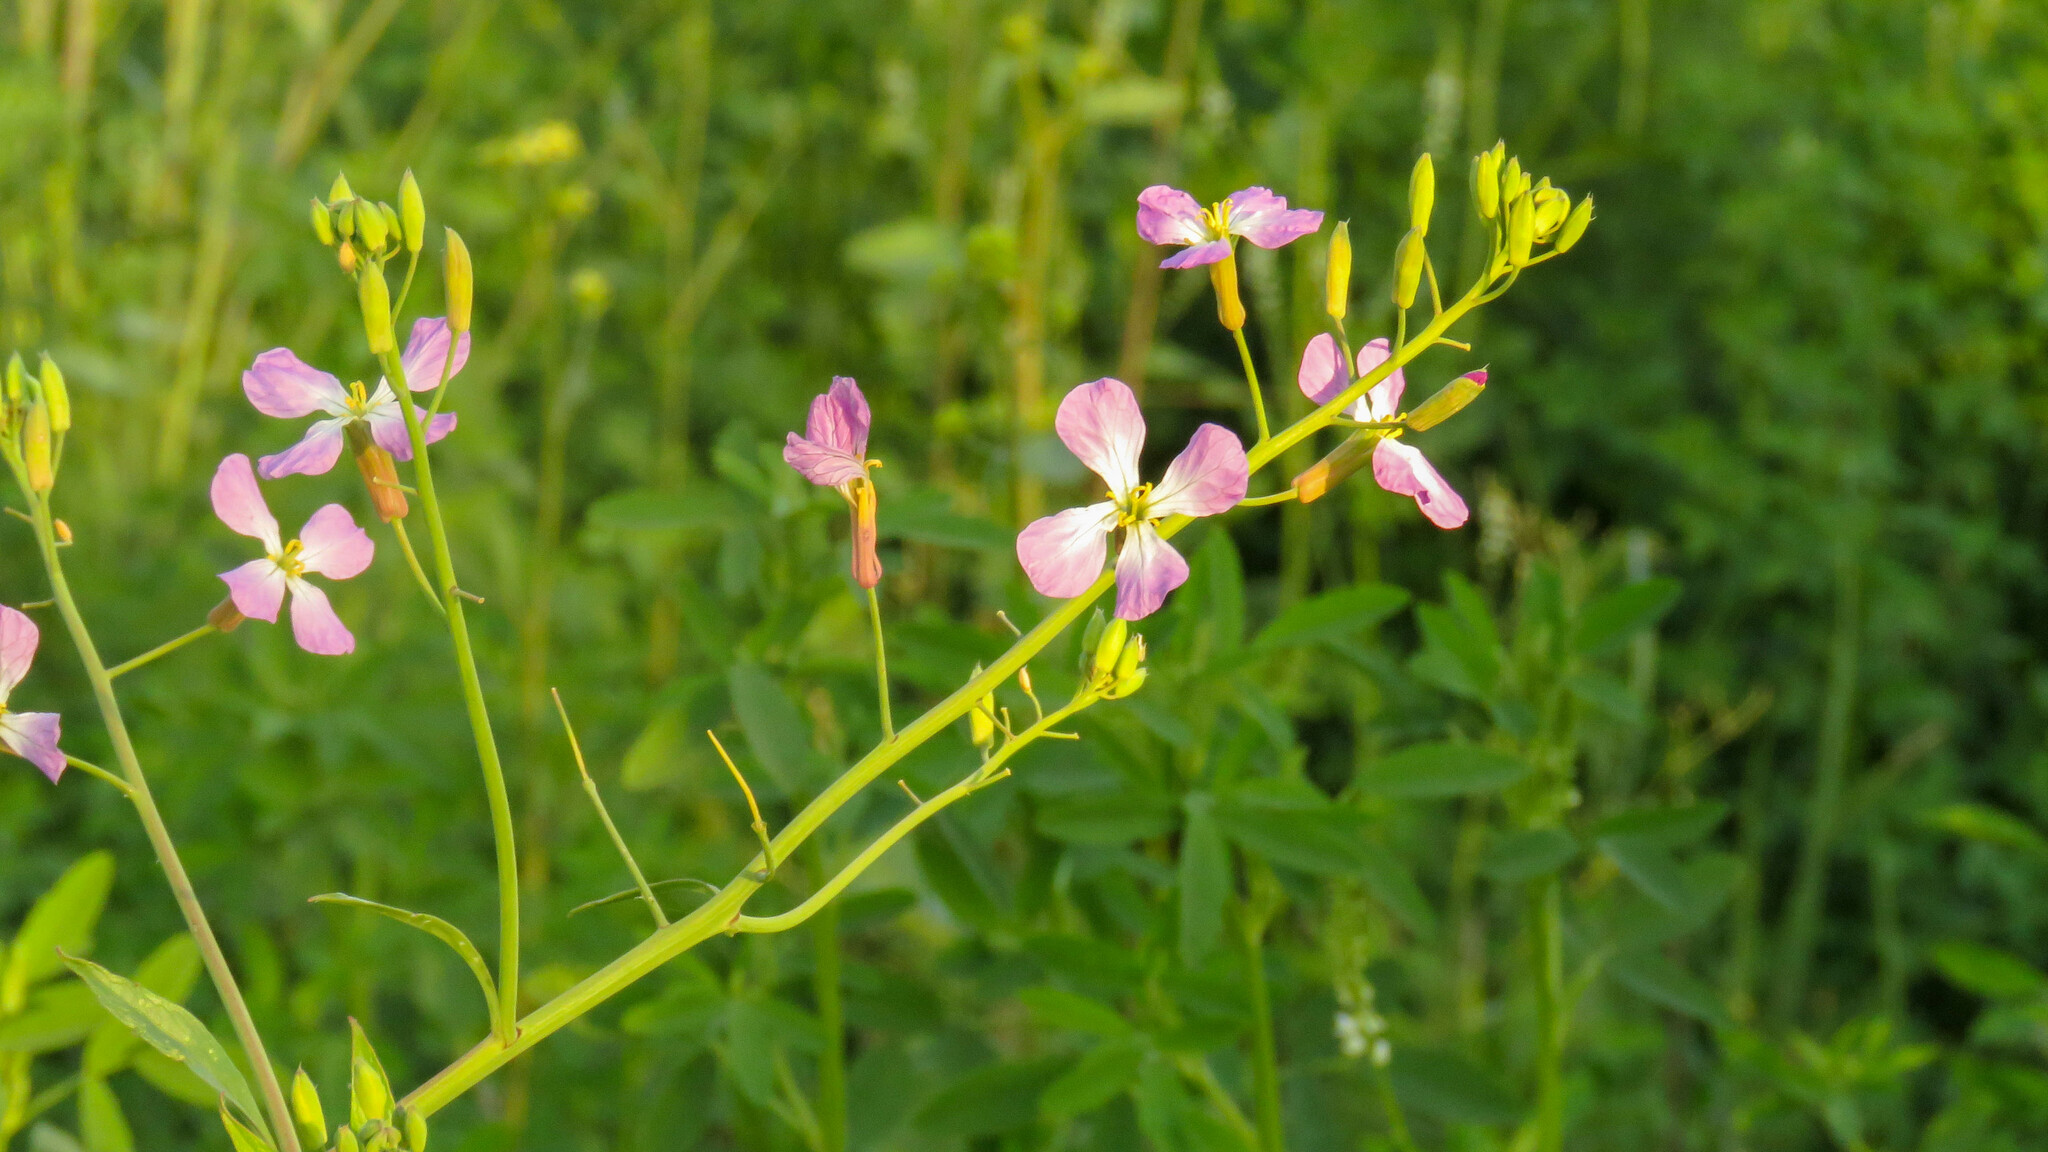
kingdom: Plantae
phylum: Tracheophyta
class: Magnoliopsida
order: Brassicales
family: Brassicaceae
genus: Raphanus
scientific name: Raphanus sativus
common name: Cultivated radish
